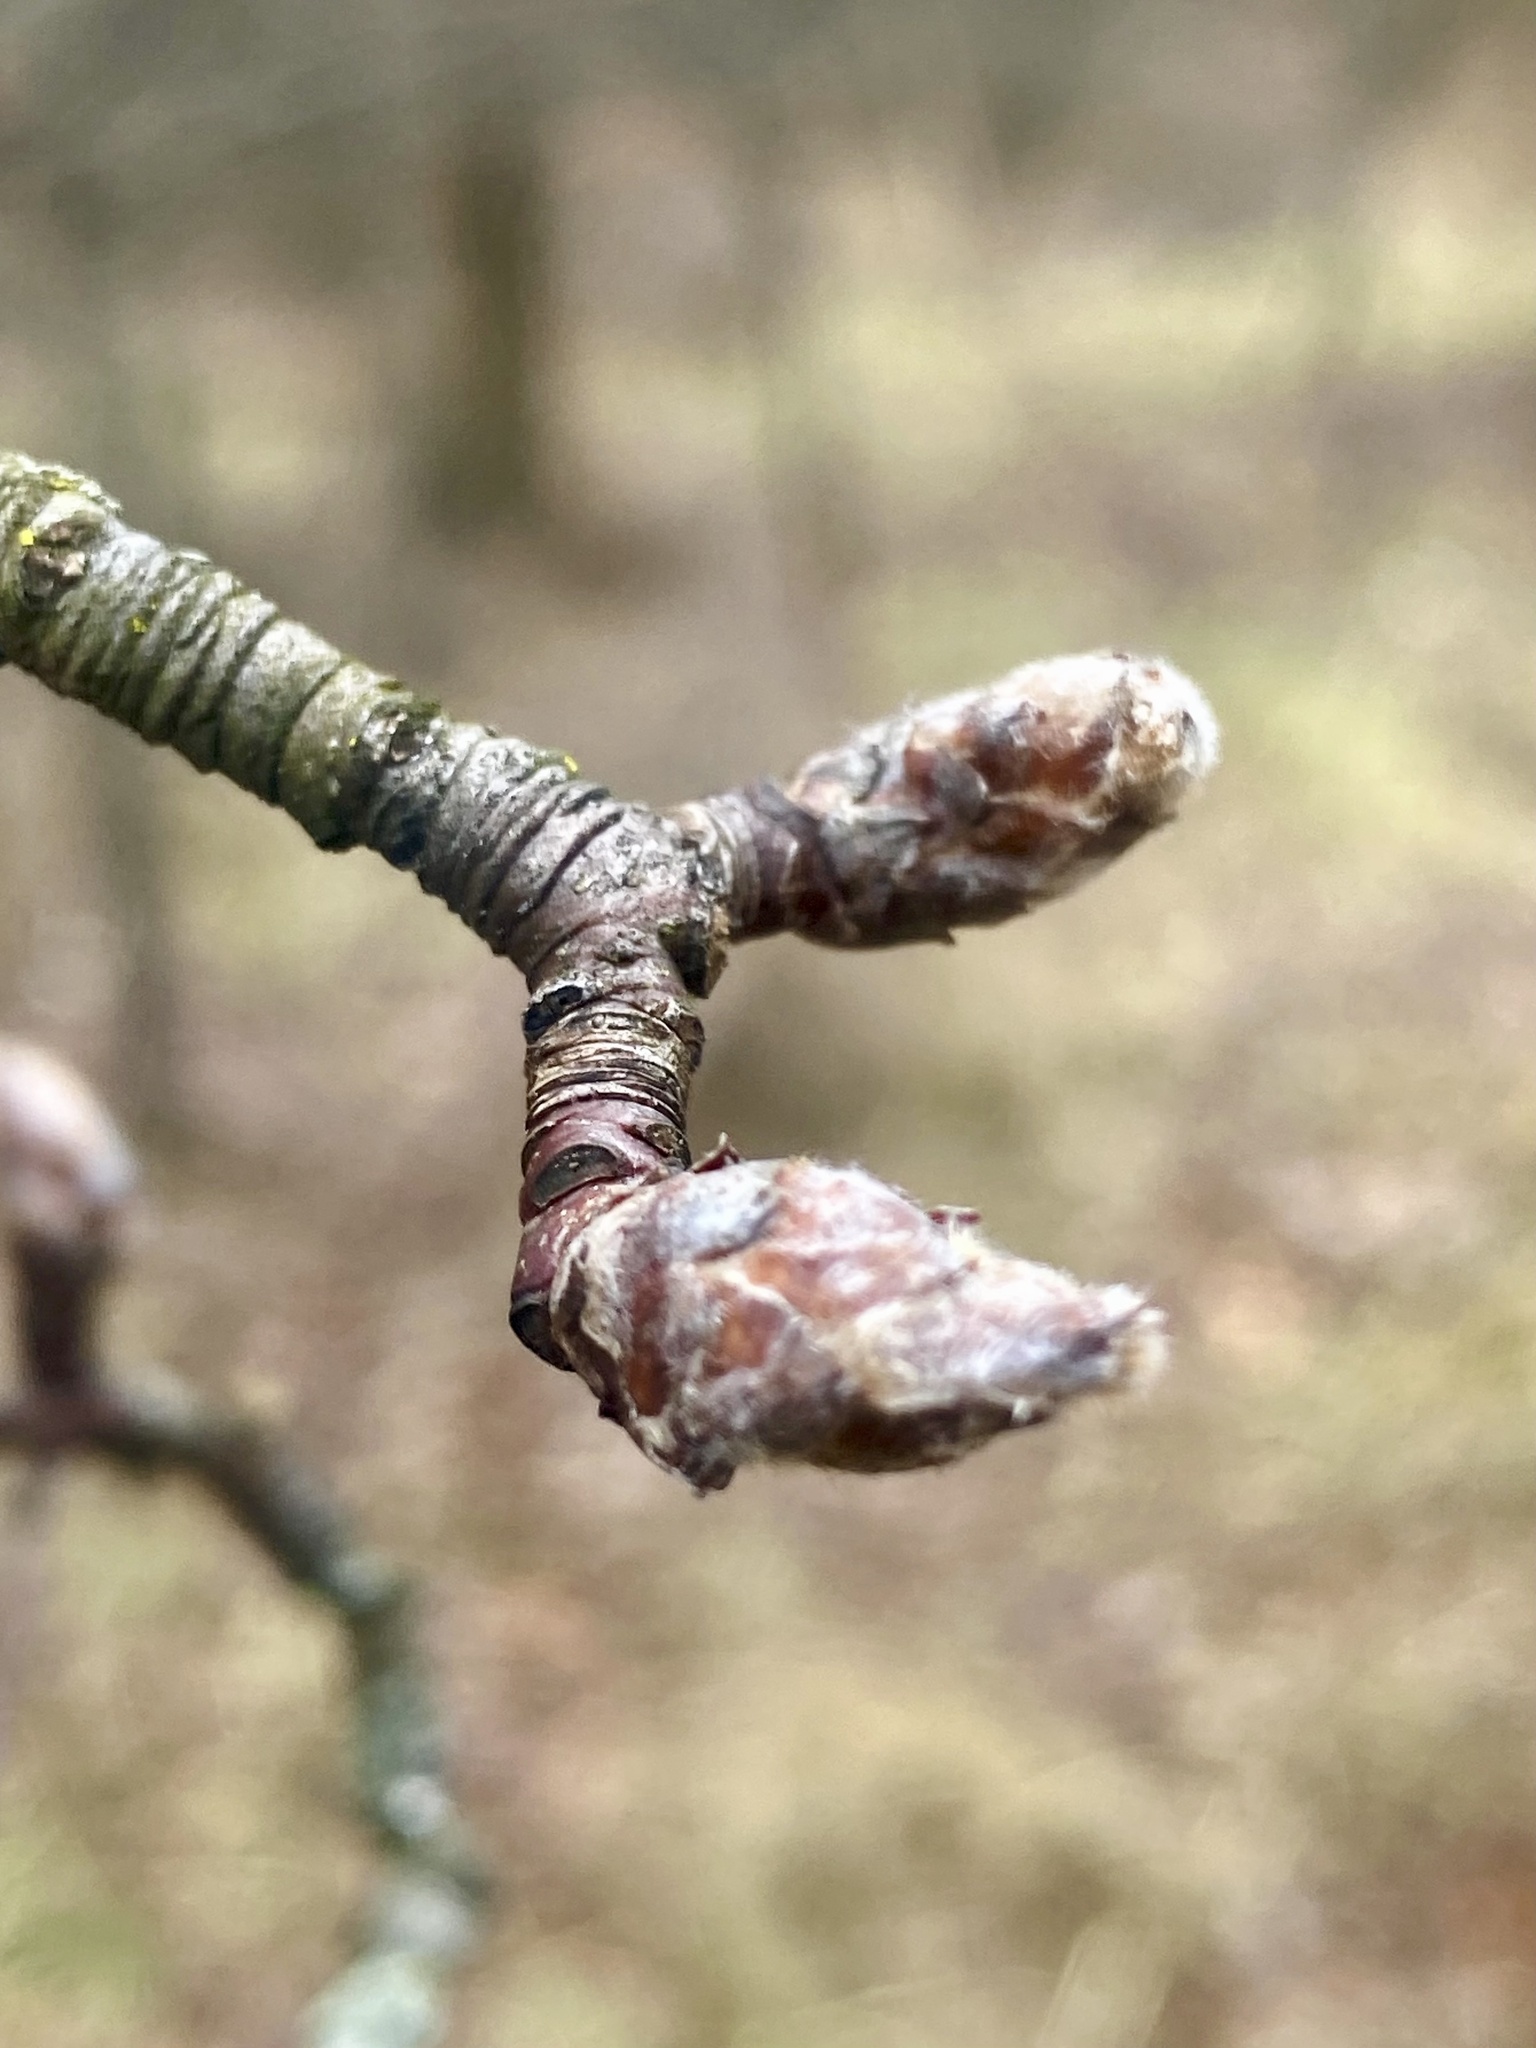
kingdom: Plantae
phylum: Tracheophyta
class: Magnoliopsida
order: Rosales
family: Rosaceae
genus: Pyrus
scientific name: Pyrus calleryana
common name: Callery pear
